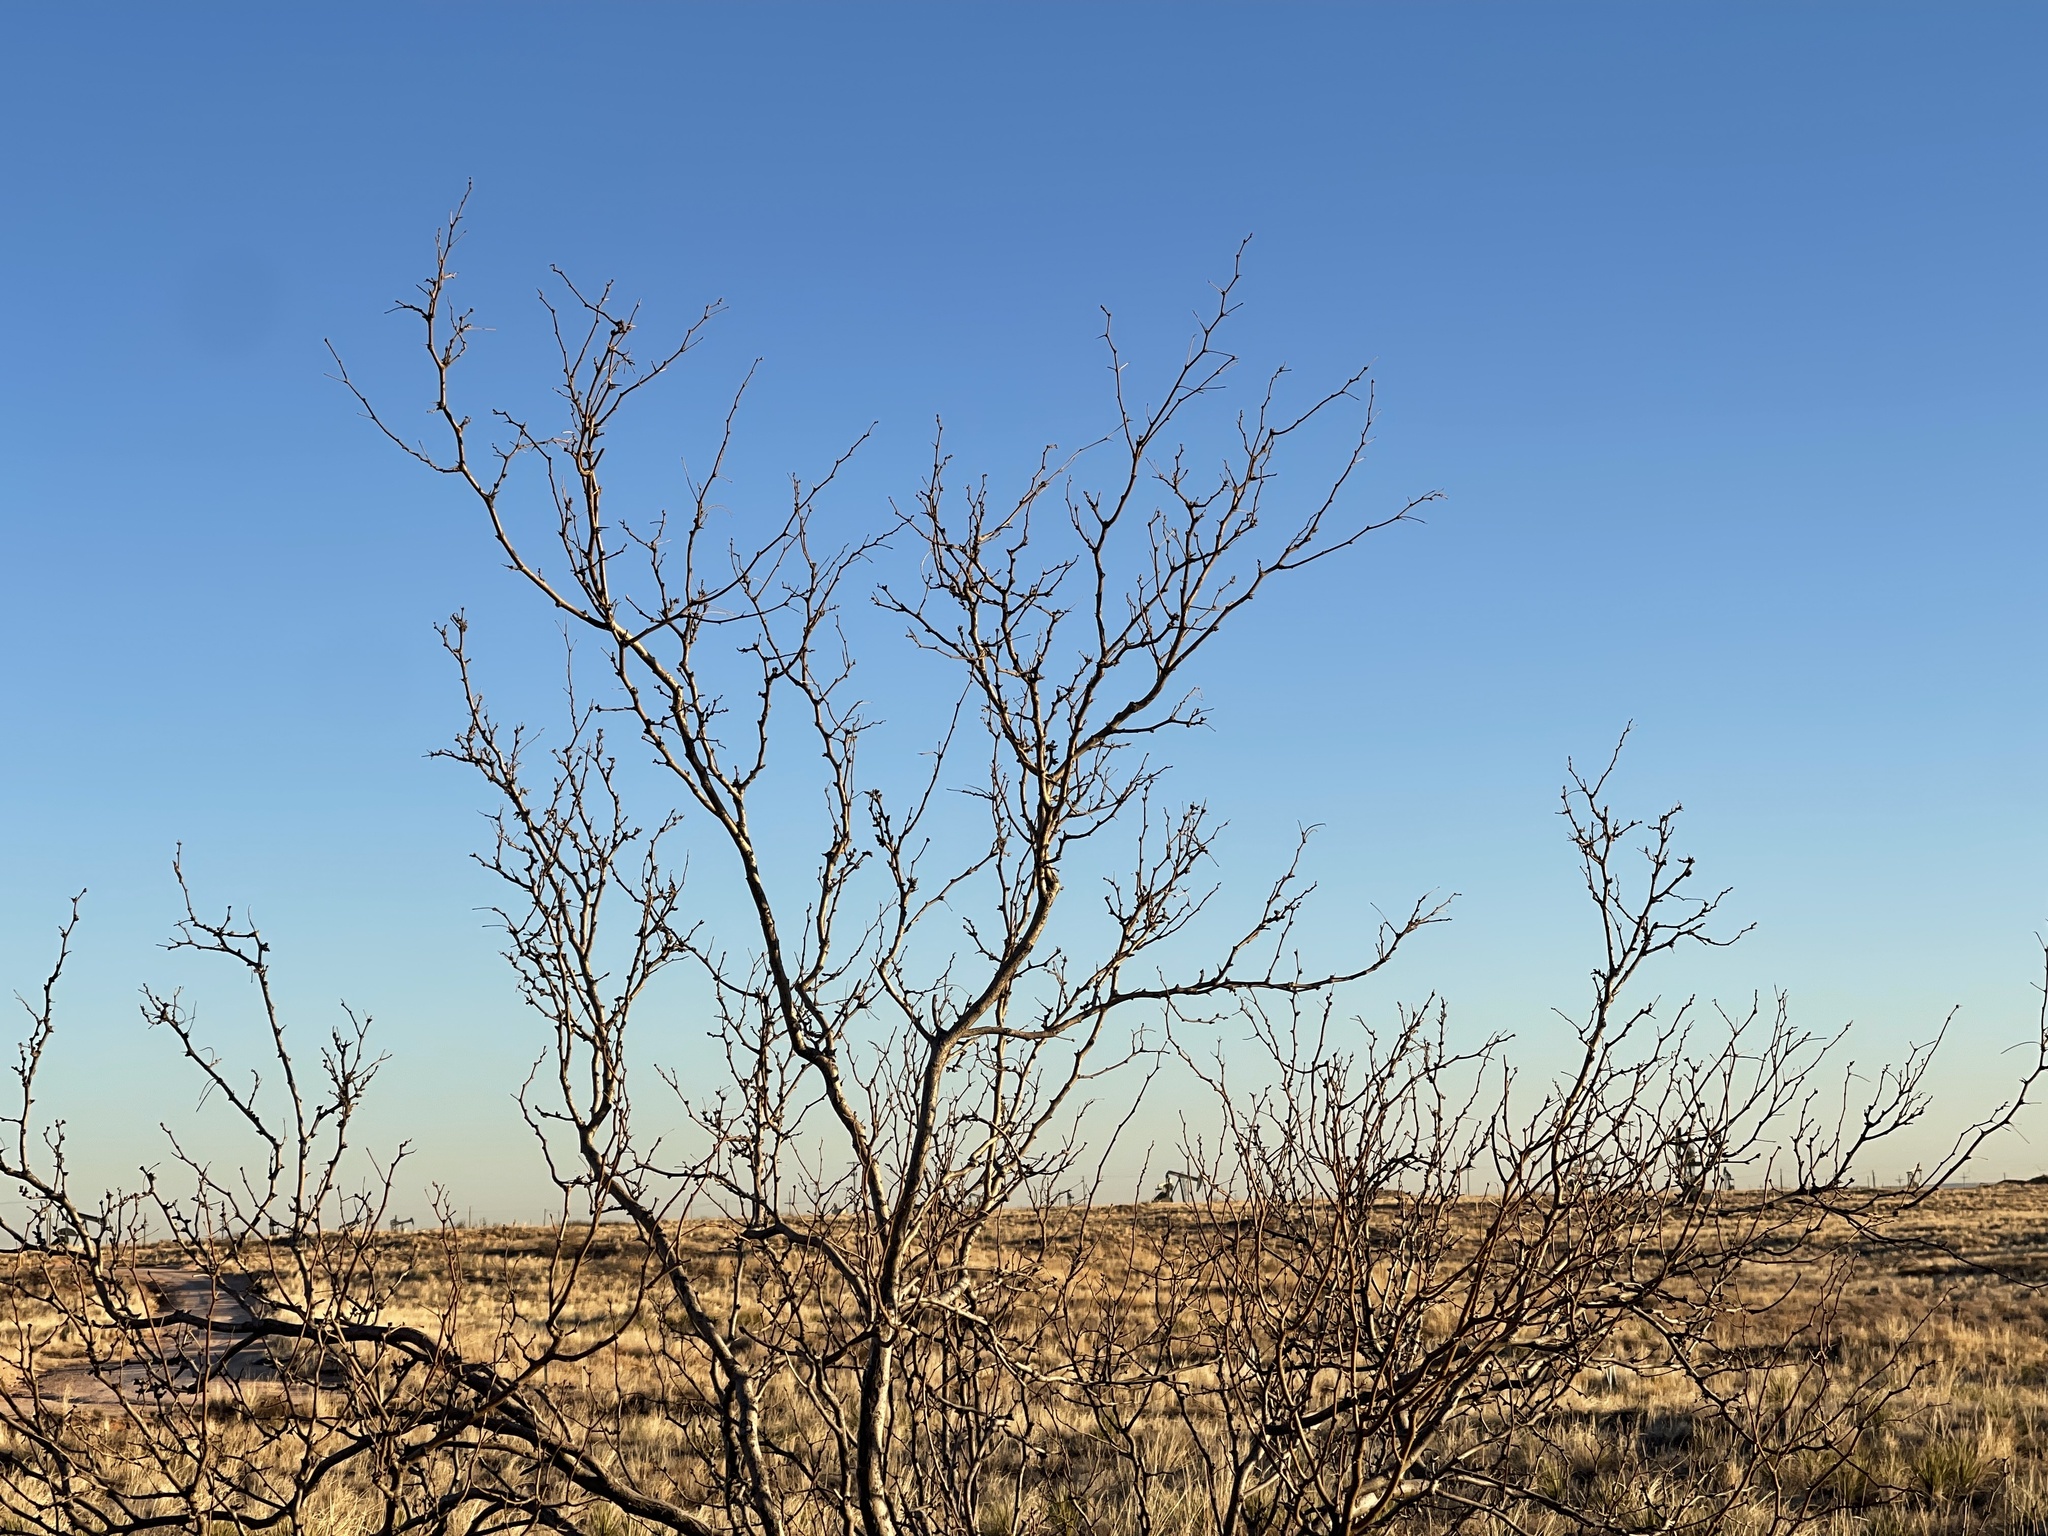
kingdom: Plantae
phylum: Tracheophyta
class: Magnoliopsida
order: Fabales
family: Fabaceae
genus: Prosopis
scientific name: Prosopis glandulosa
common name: Honey mesquite
